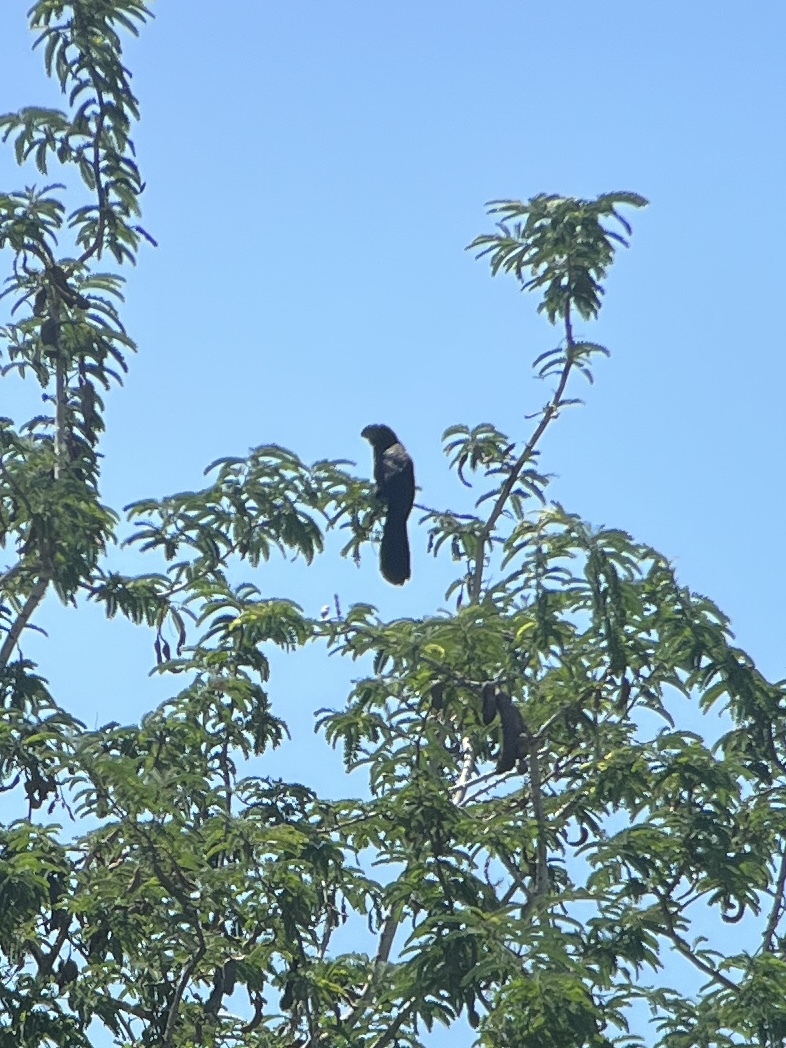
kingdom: Animalia
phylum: Chordata
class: Aves
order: Cuculiformes
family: Cuculidae
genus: Crotophaga
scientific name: Crotophaga ani
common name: Smooth-billed ani
